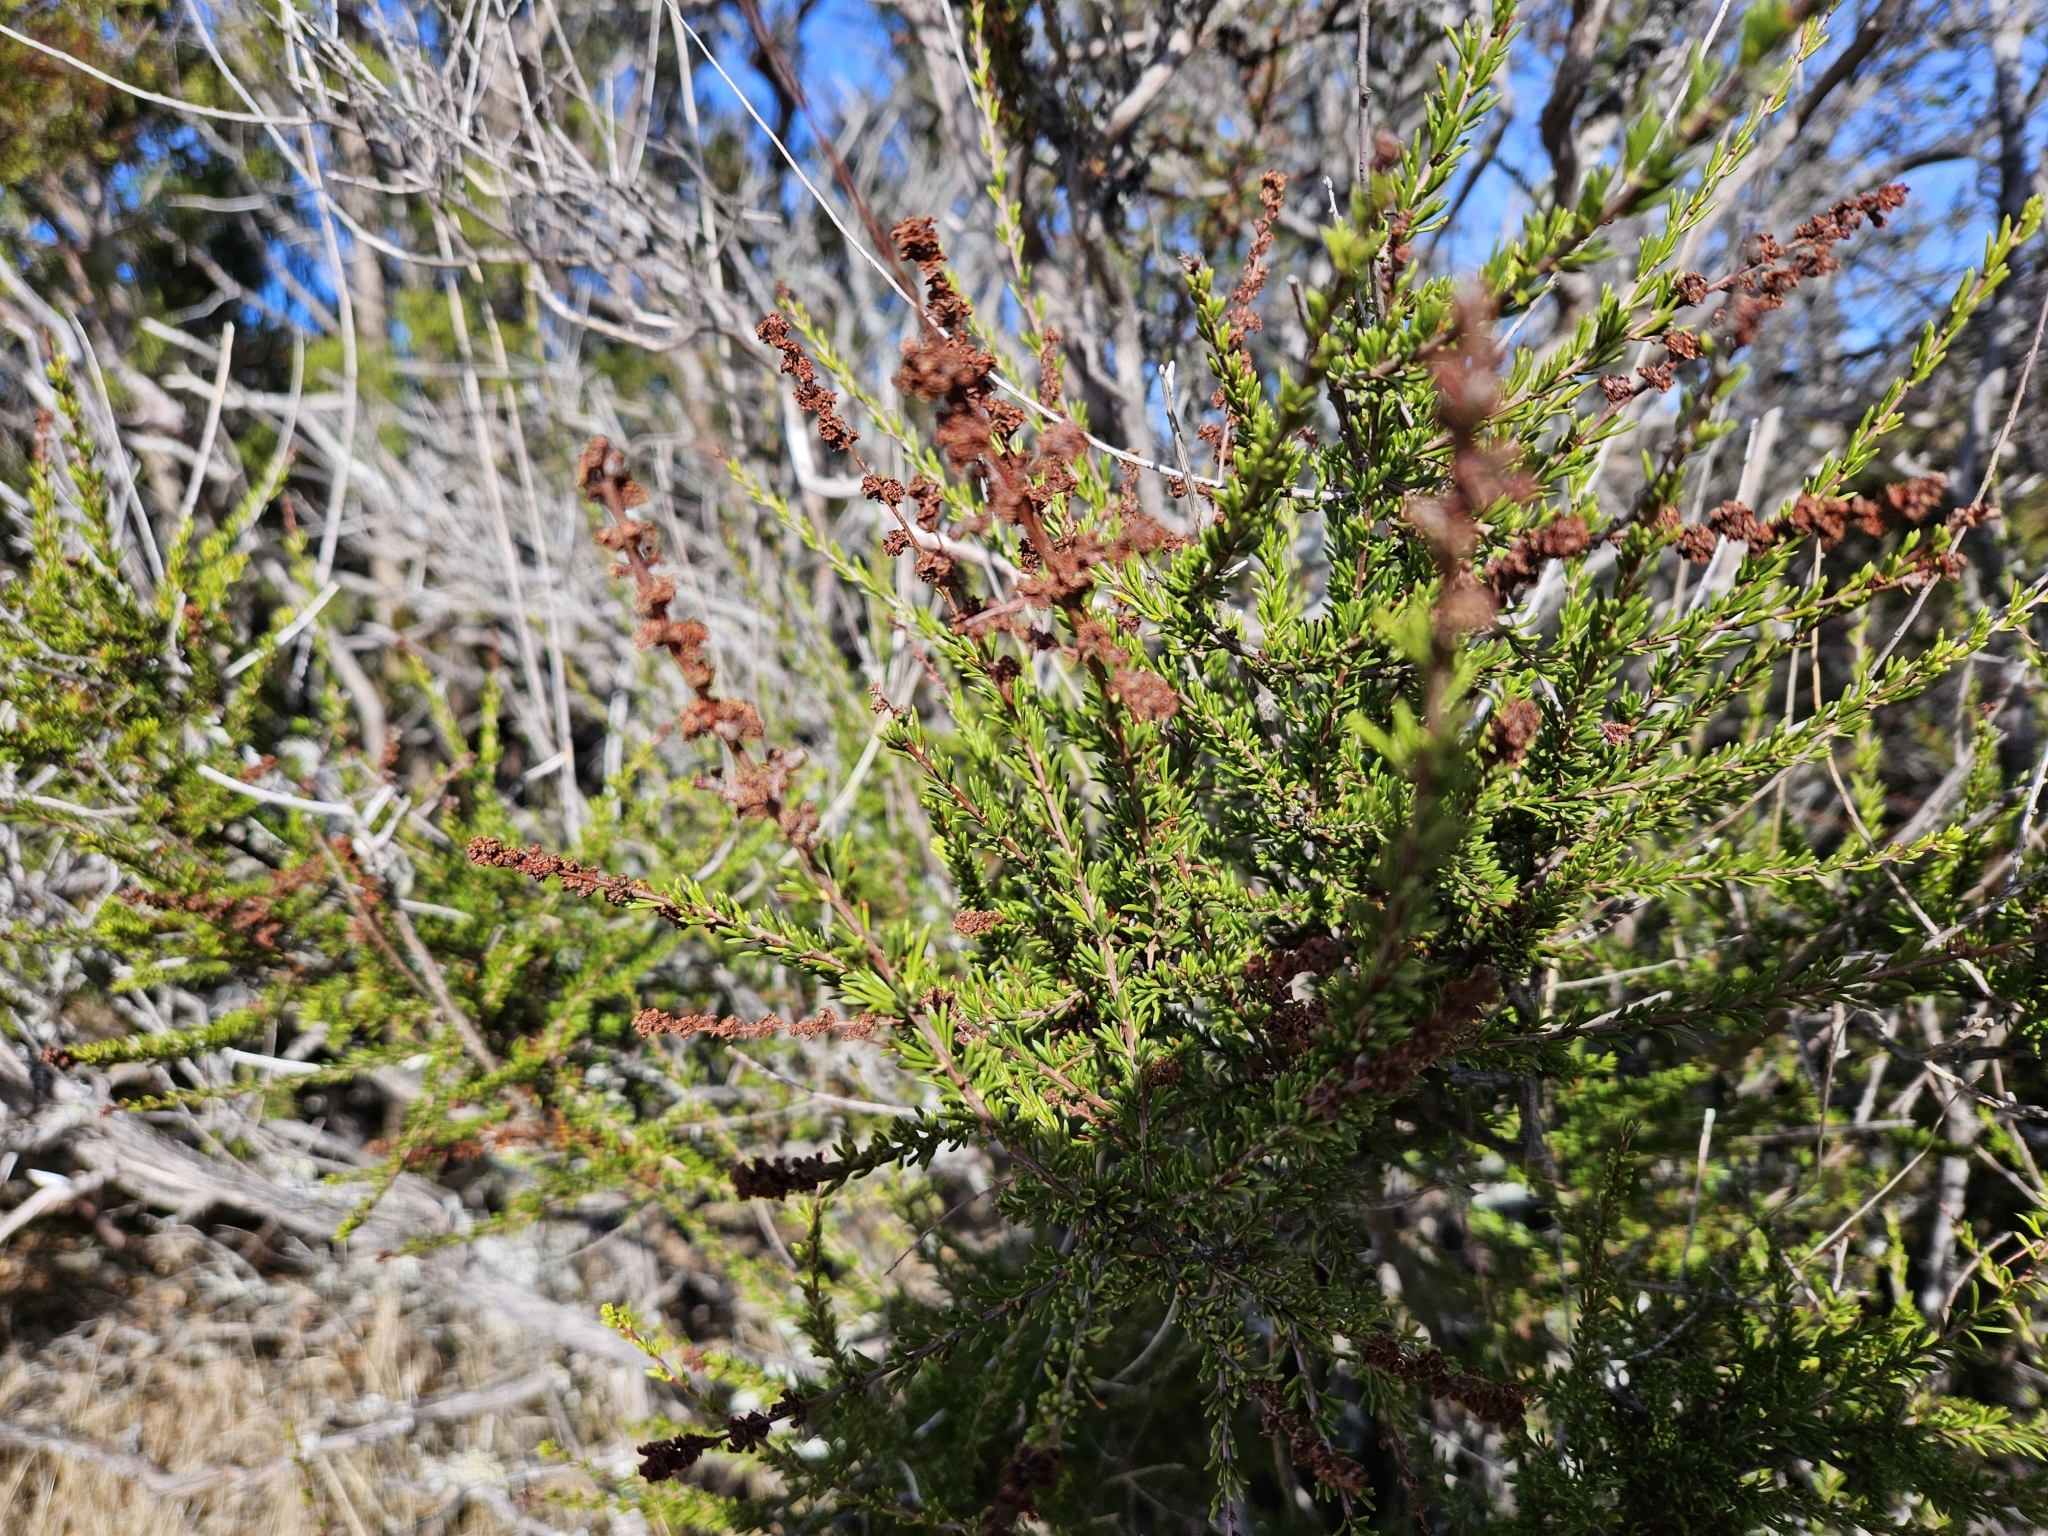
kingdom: Plantae
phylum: Tracheophyta
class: Magnoliopsida
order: Rosales
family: Rosaceae
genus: Adenostoma
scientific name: Adenostoma fasciculatum
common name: Chamise
